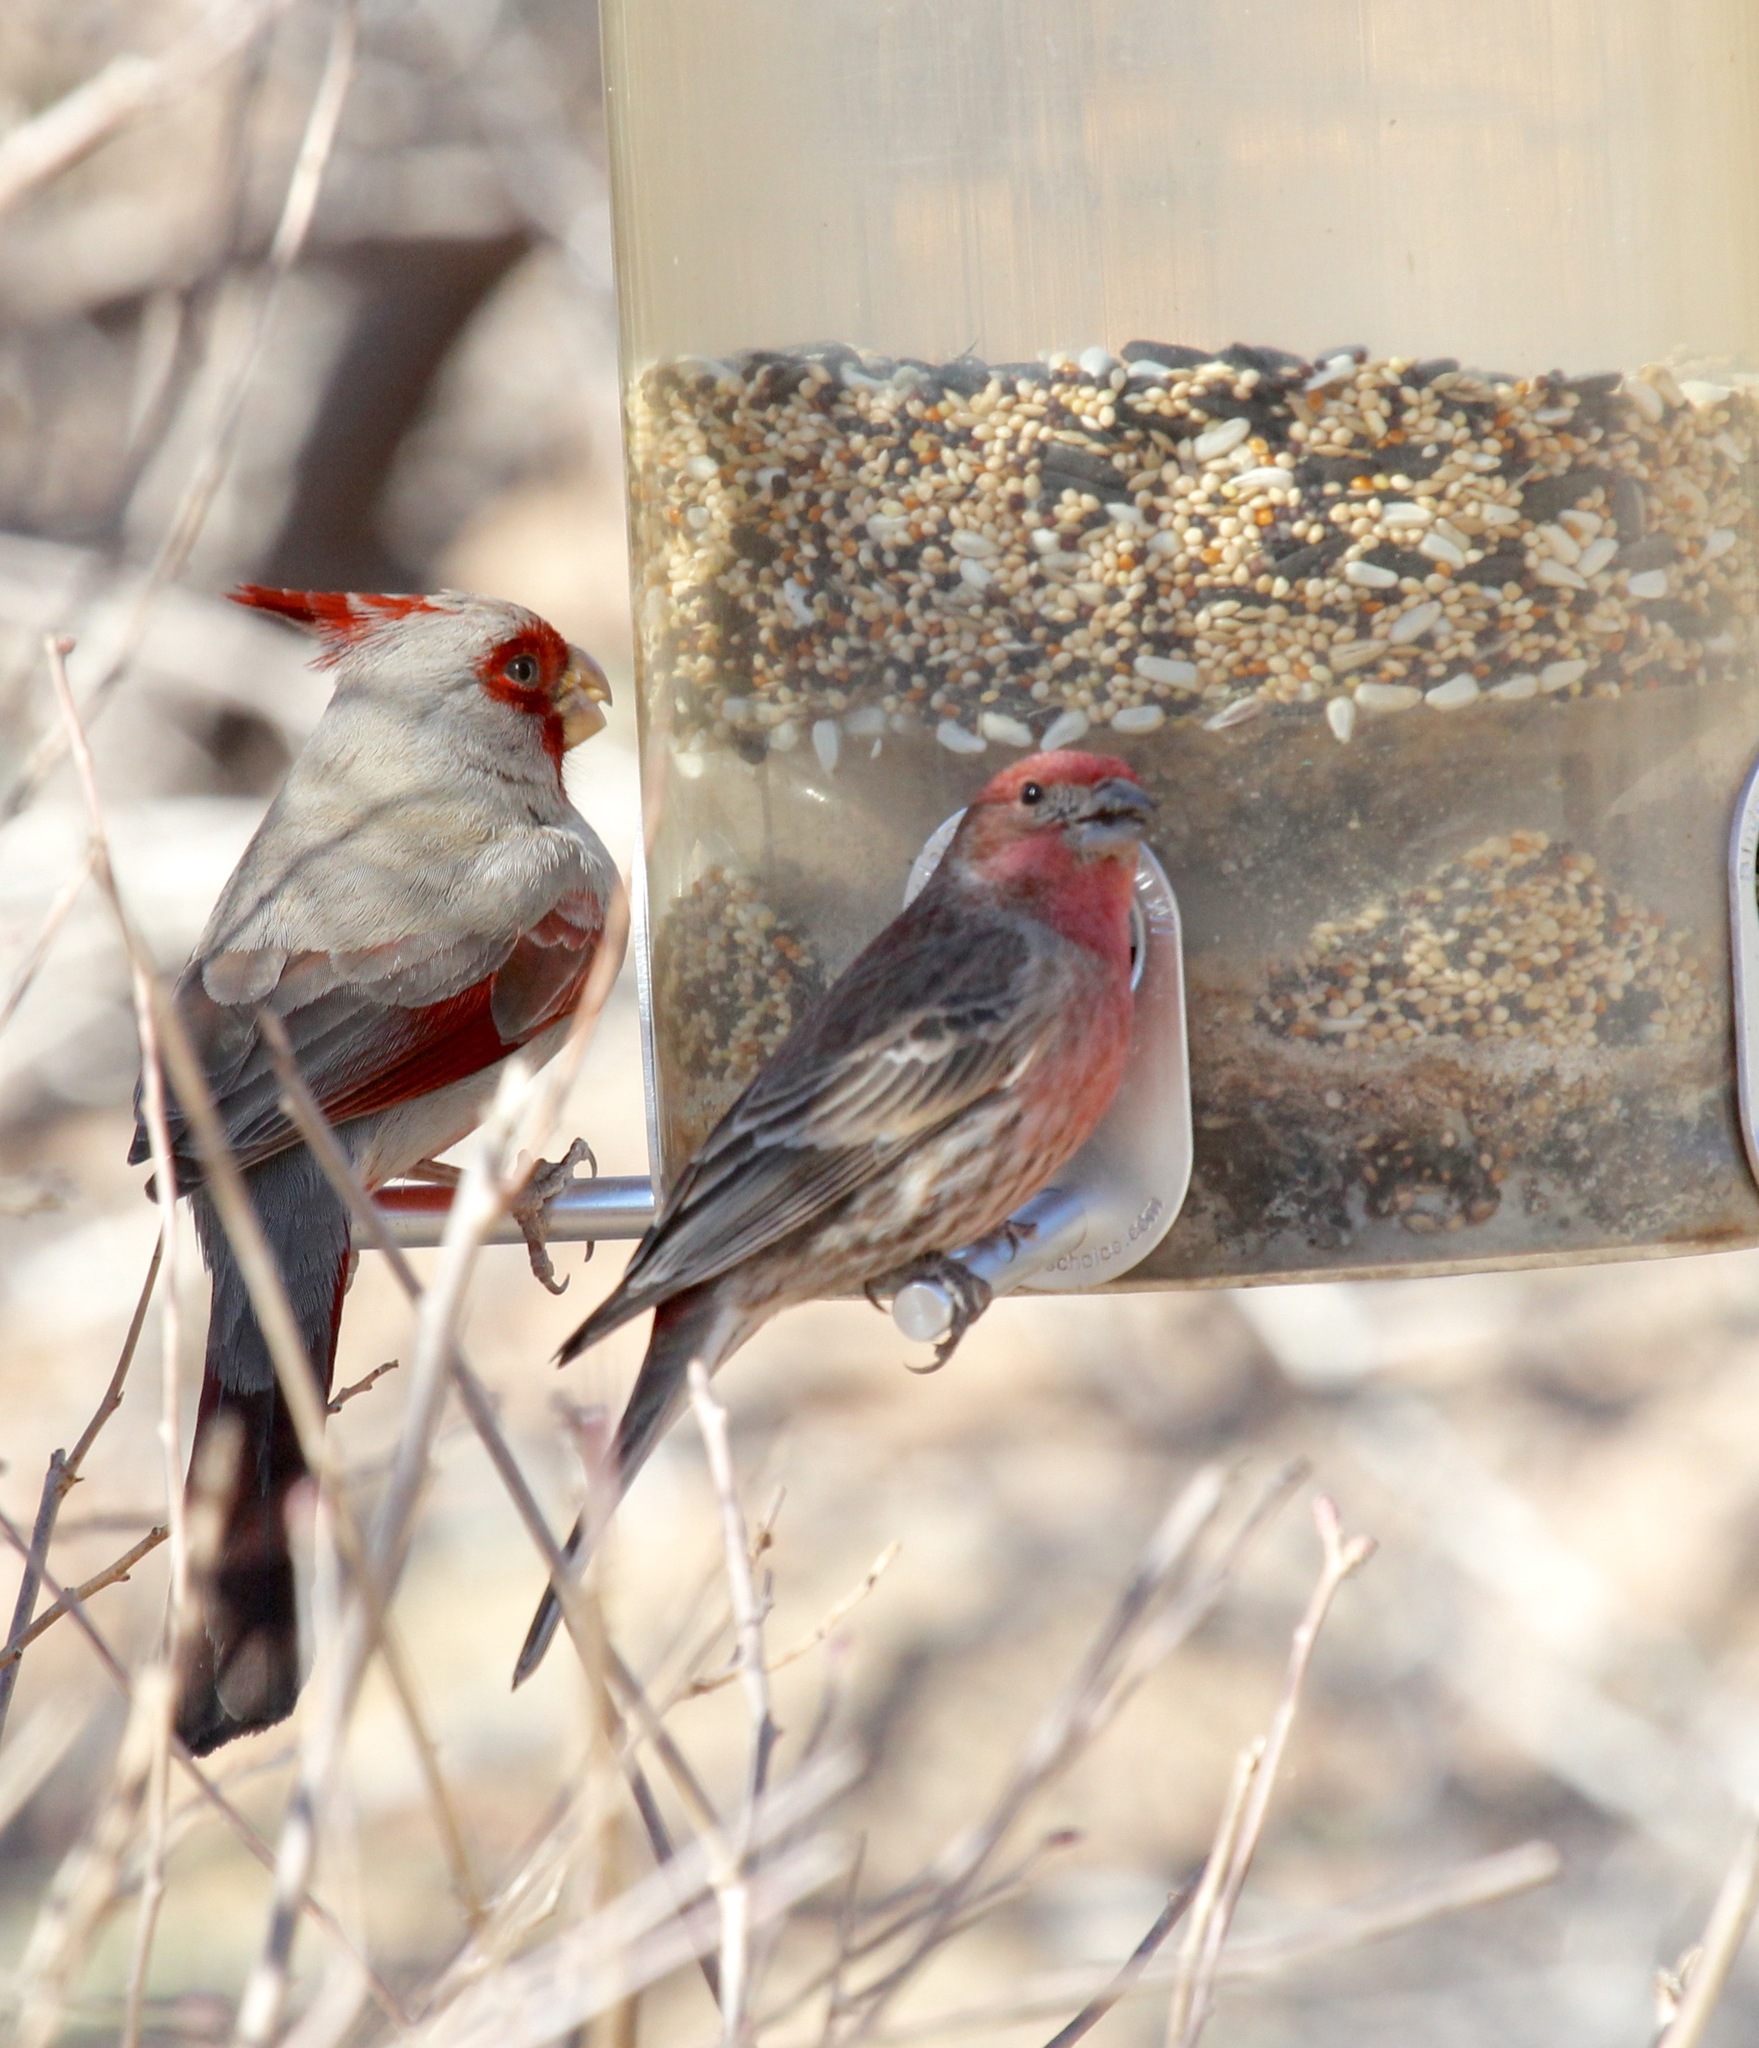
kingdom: Animalia
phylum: Chordata
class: Aves
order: Passeriformes
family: Fringillidae
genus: Haemorhous
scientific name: Haemorhous mexicanus
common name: House finch
